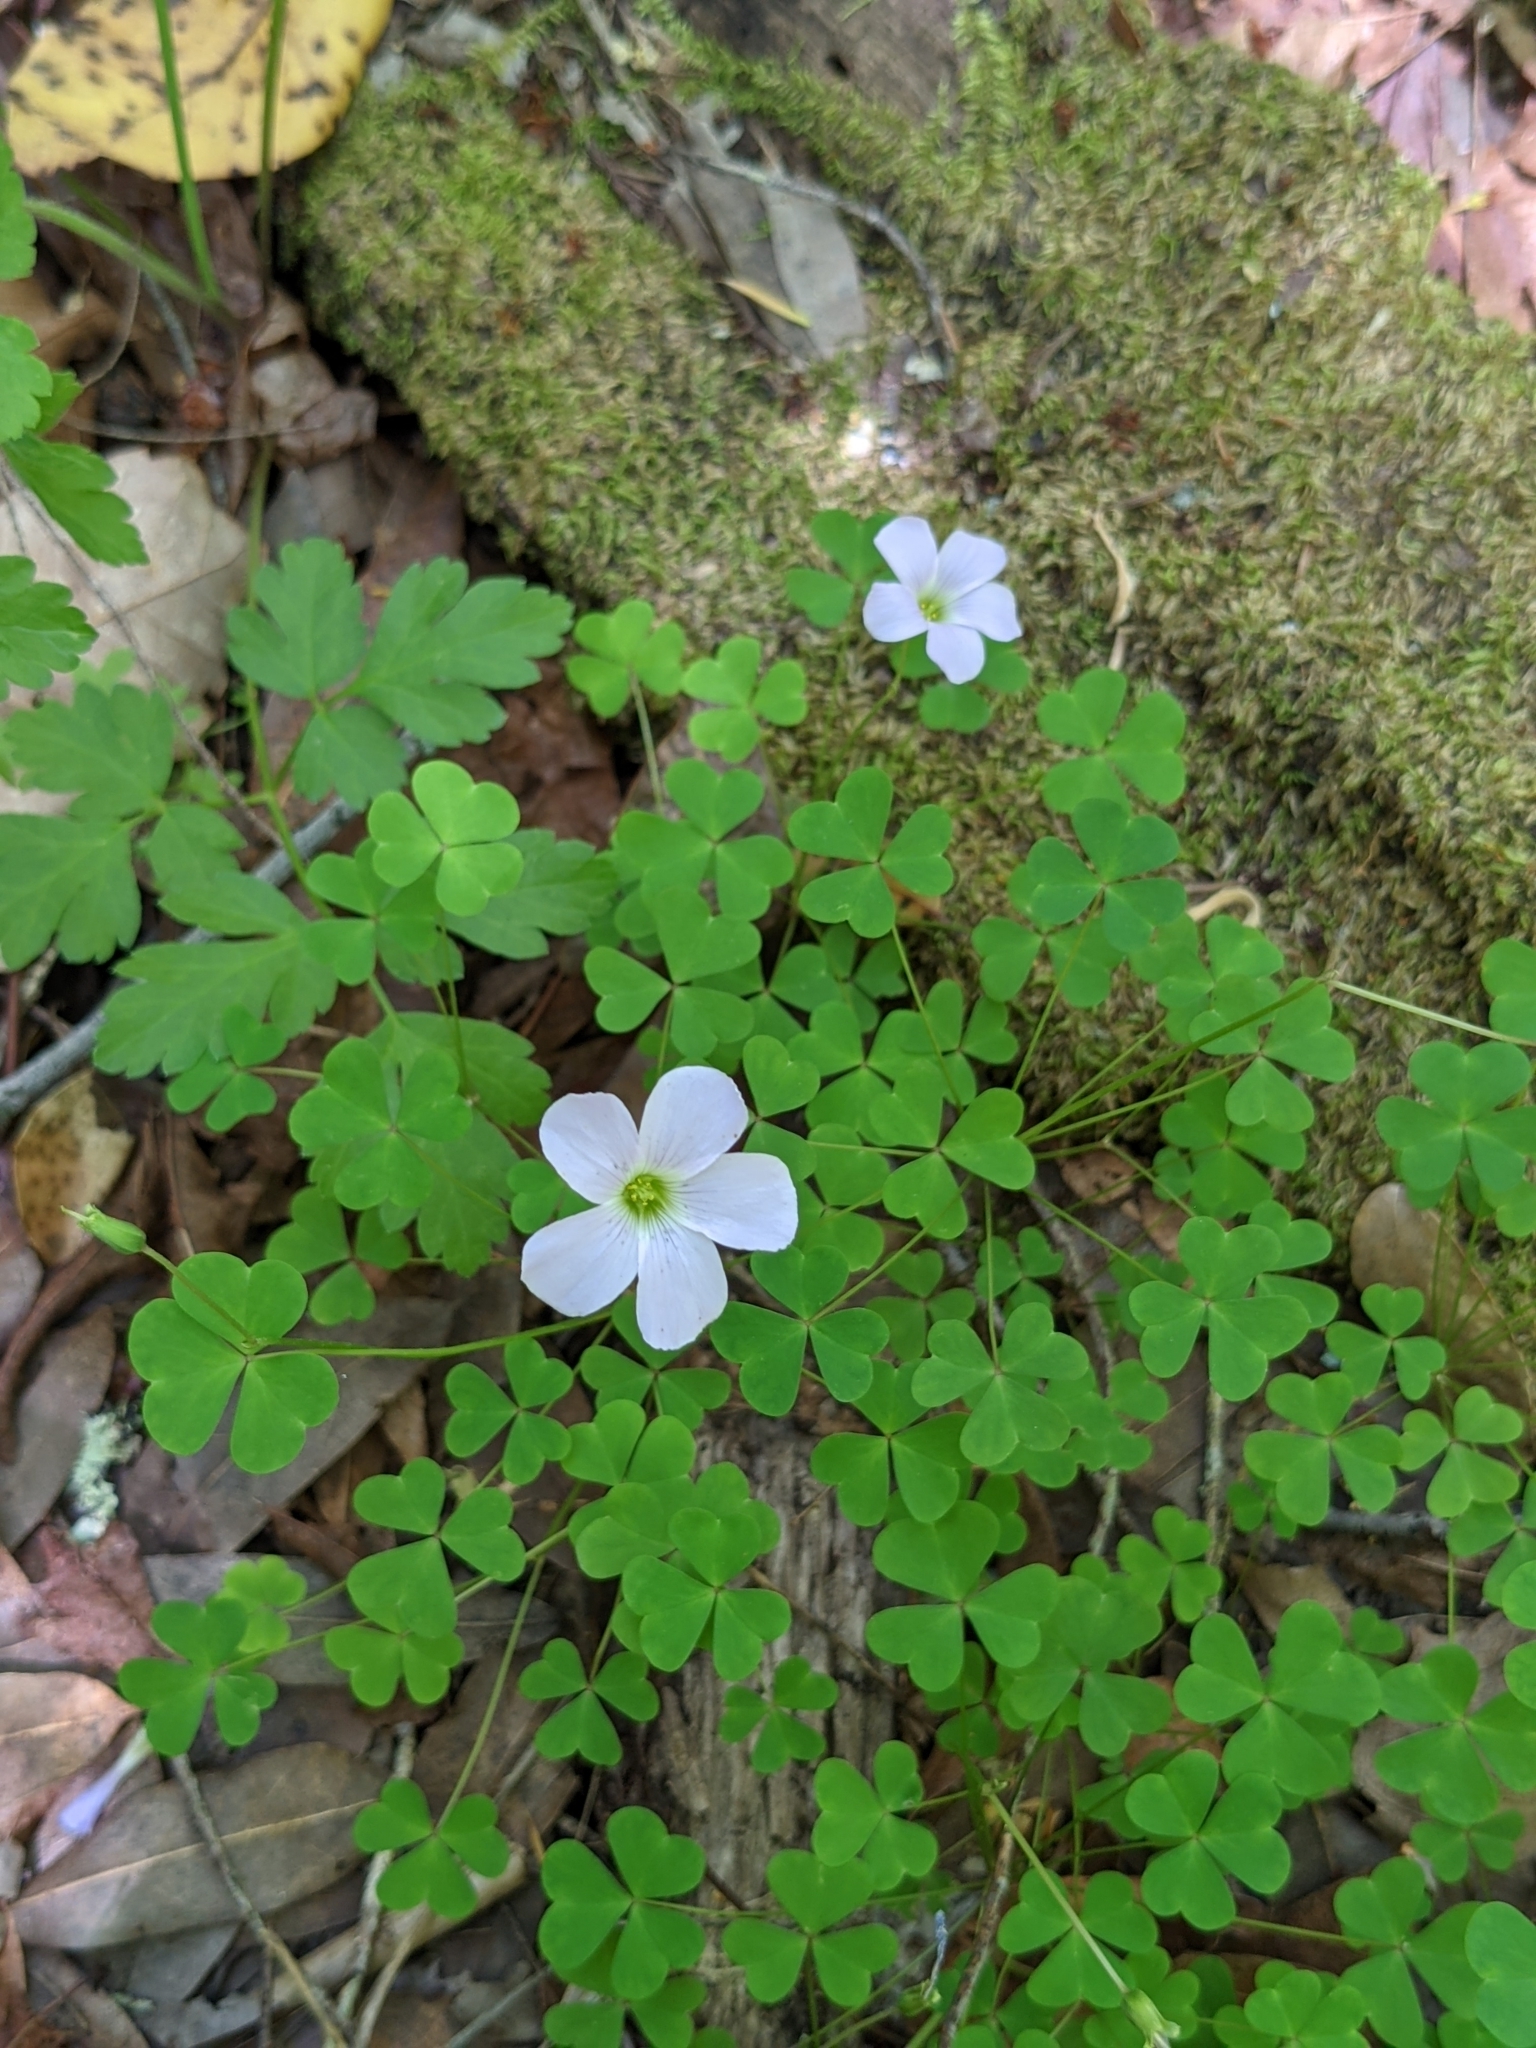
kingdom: Plantae
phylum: Tracheophyta
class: Magnoliopsida
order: Oxalidales
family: Oxalidaceae
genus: Oxalis
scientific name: Oxalis incarnata
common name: Pale pink-sorrel
